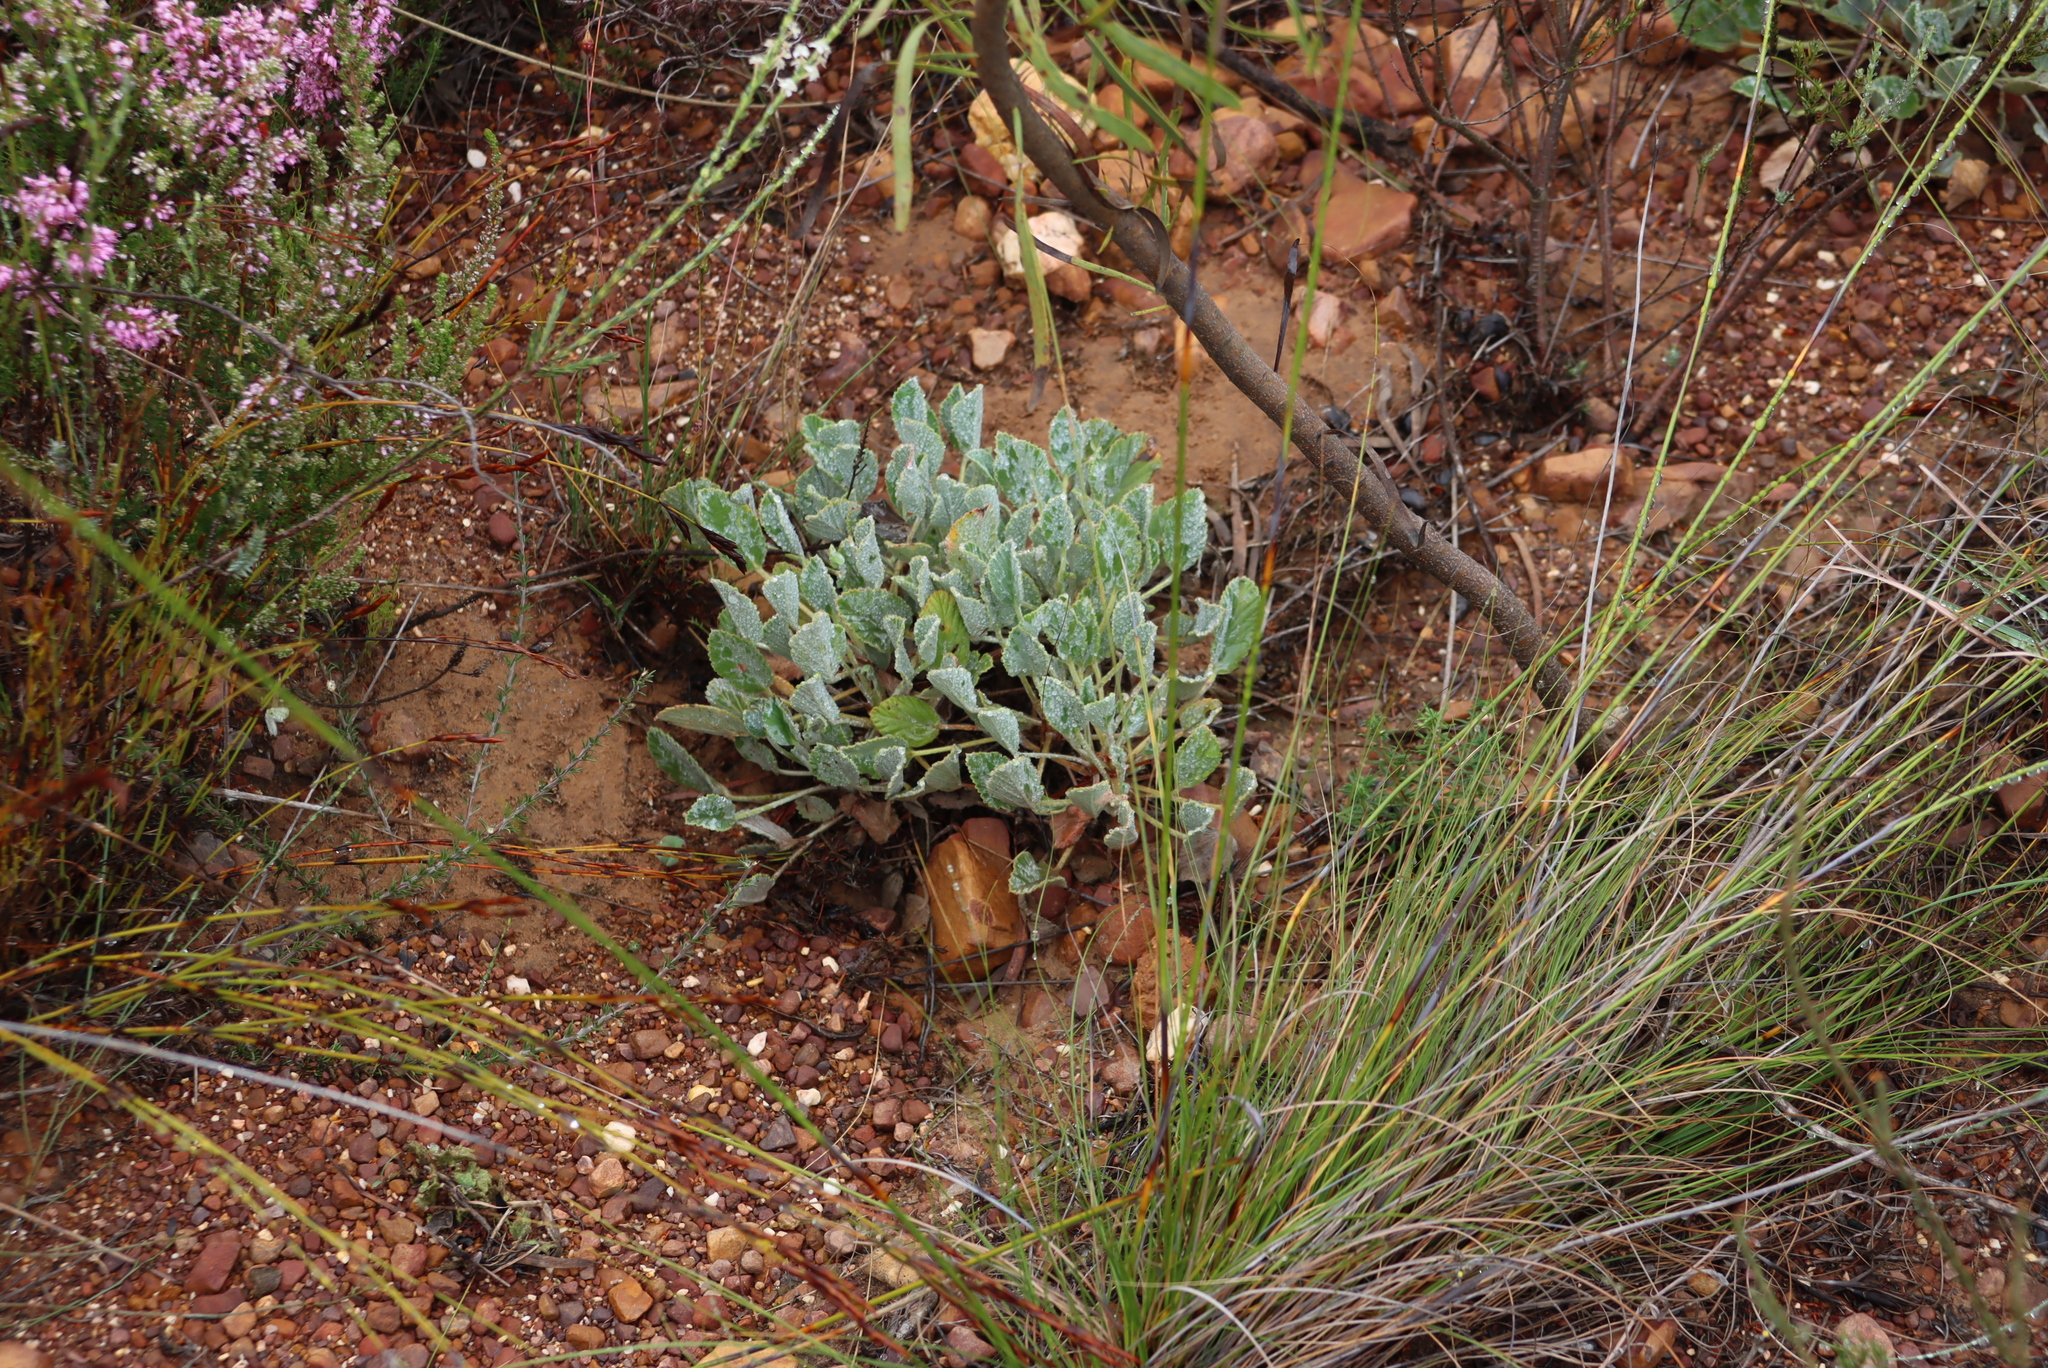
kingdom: Plantae
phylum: Tracheophyta
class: Magnoliopsida
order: Geraniales
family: Geraniaceae
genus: Pelargonium
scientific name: Pelargonium ovale
